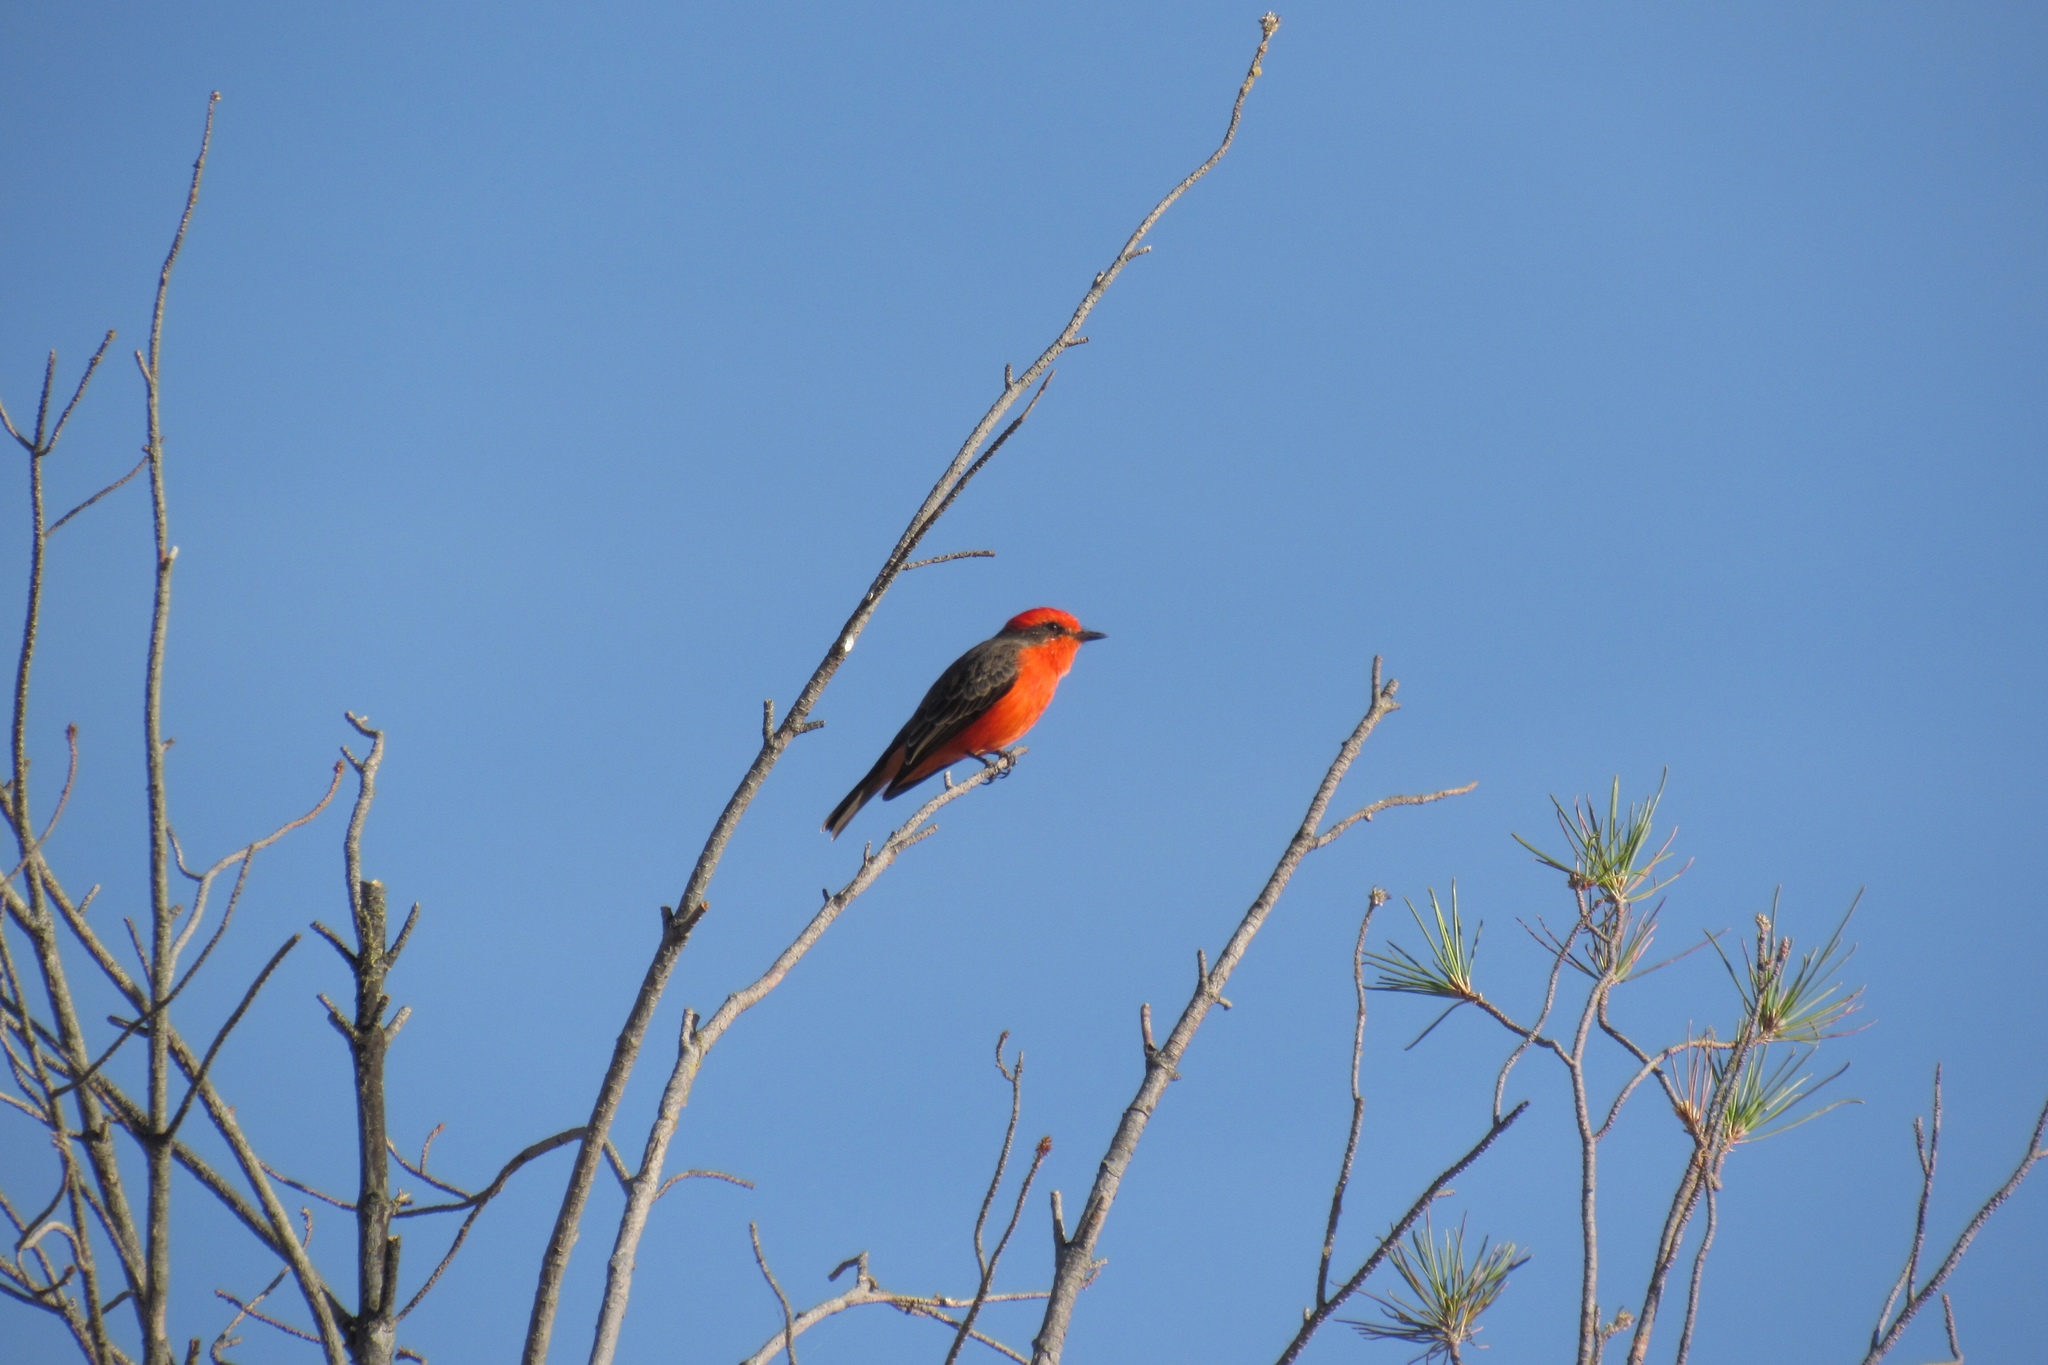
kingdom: Animalia
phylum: Chordata
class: Aves
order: Passeriformes
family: Tyrannidae
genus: Pyrocephalus
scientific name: Pyrocephalus rubinus
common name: Vermilion flycatcher
